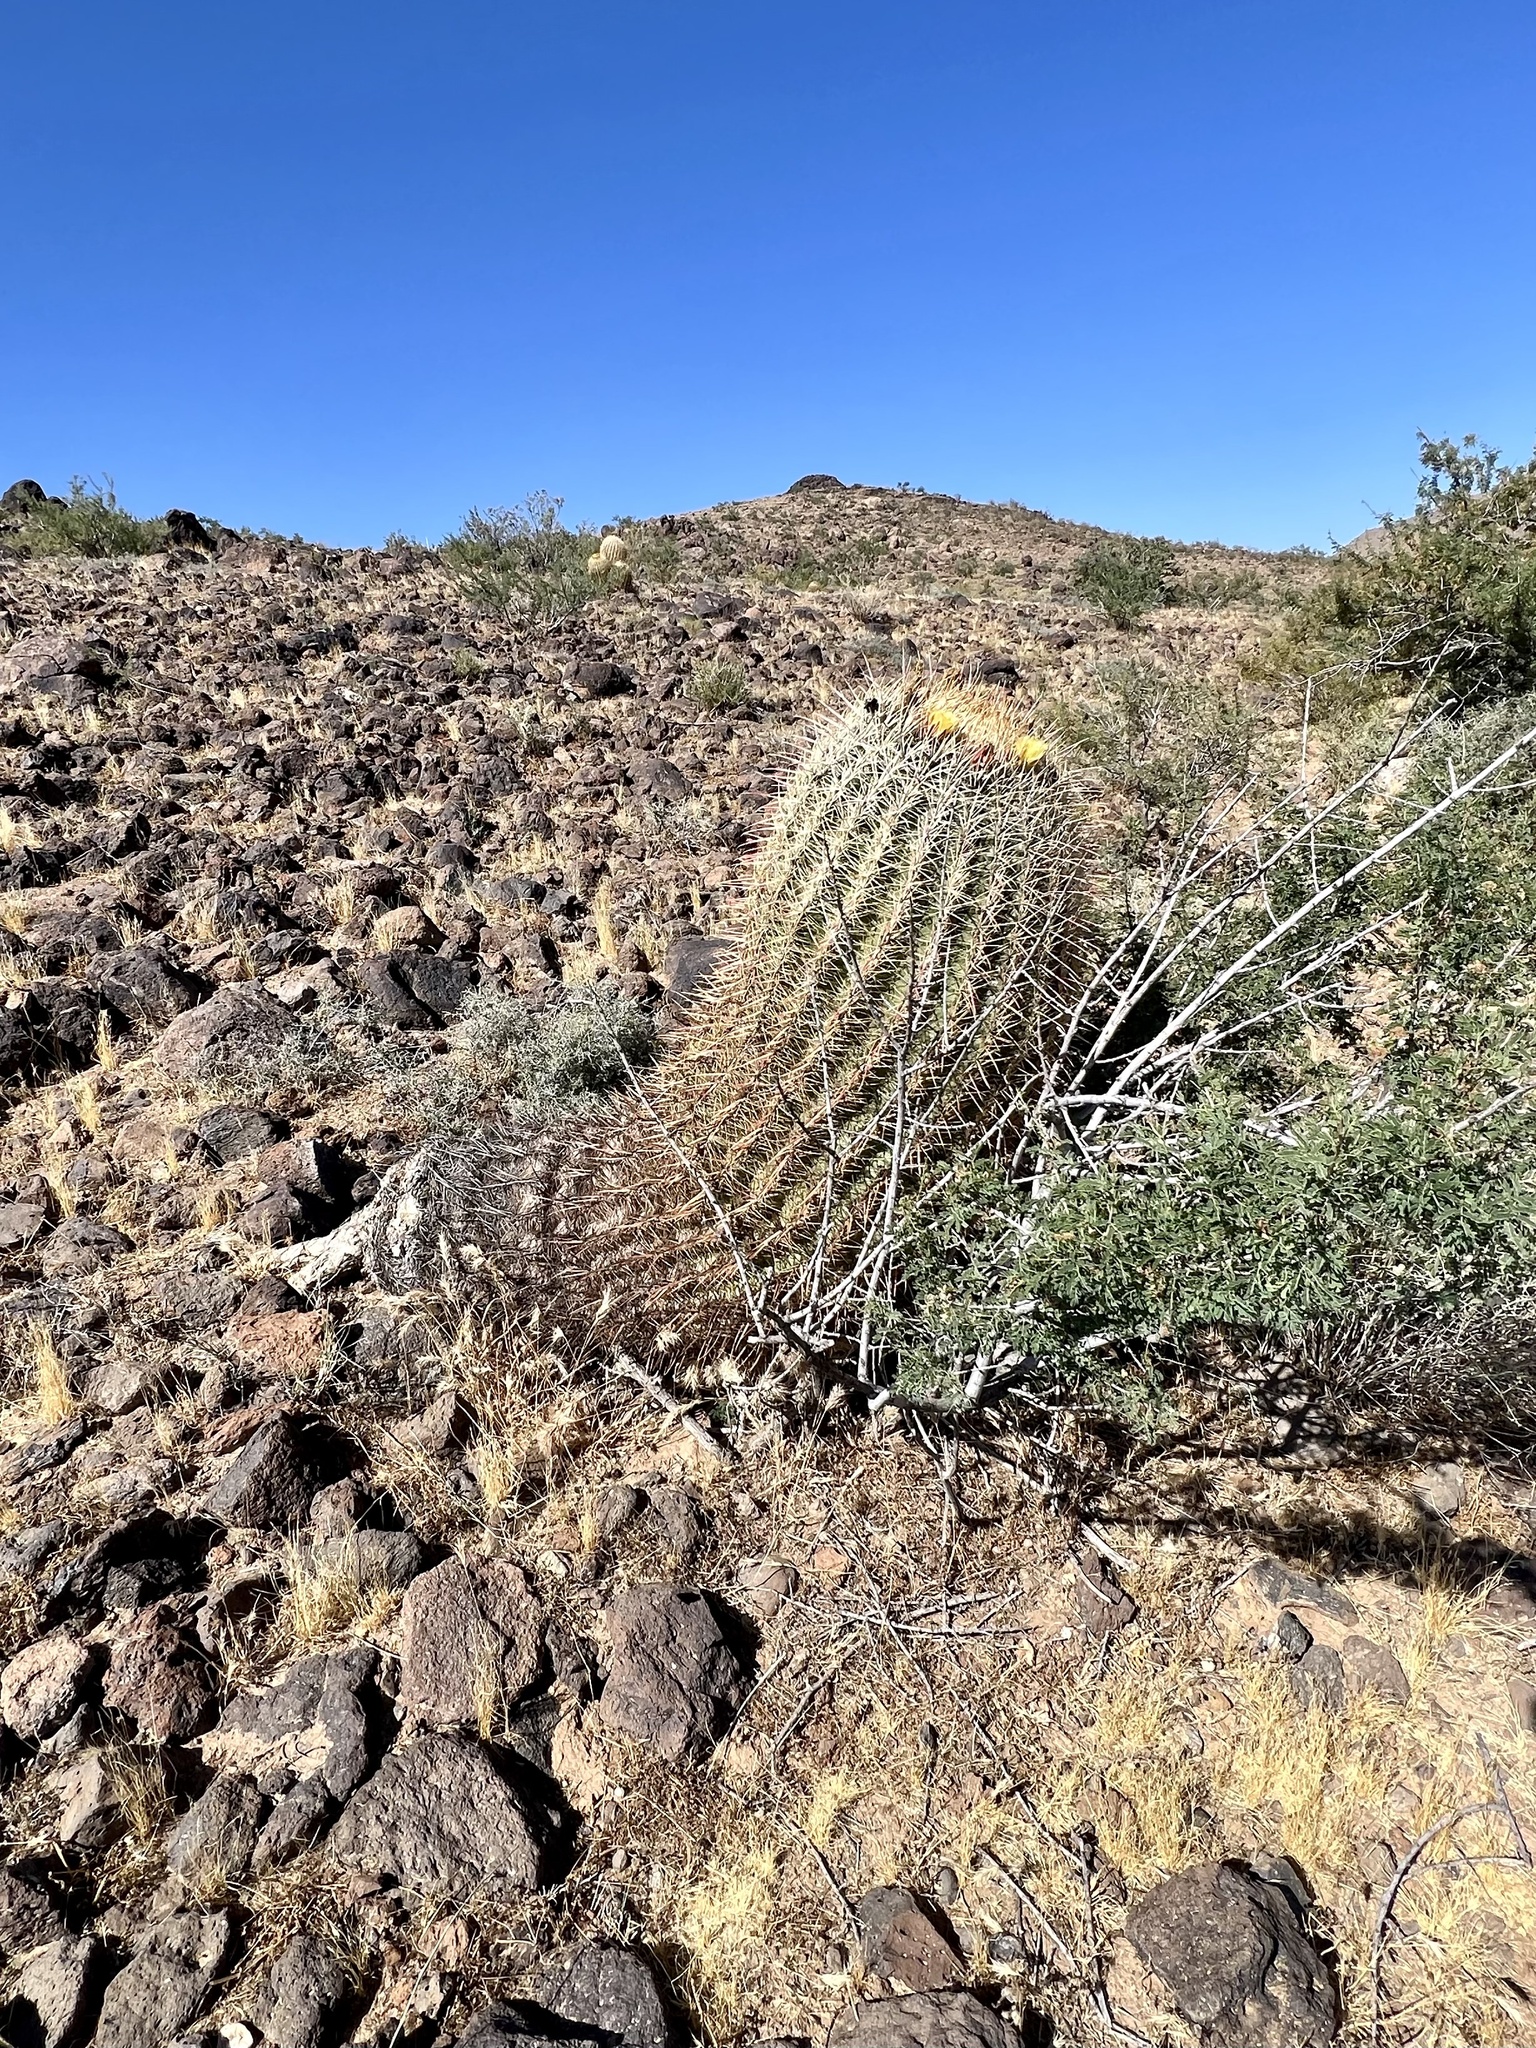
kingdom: Plantae
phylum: Tracheophyta
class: Magnoliopsida
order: Caryophyllales
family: Cactaceae
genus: Ferocactus
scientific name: Ferocactus cylindraceus
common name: California barrel cactus
